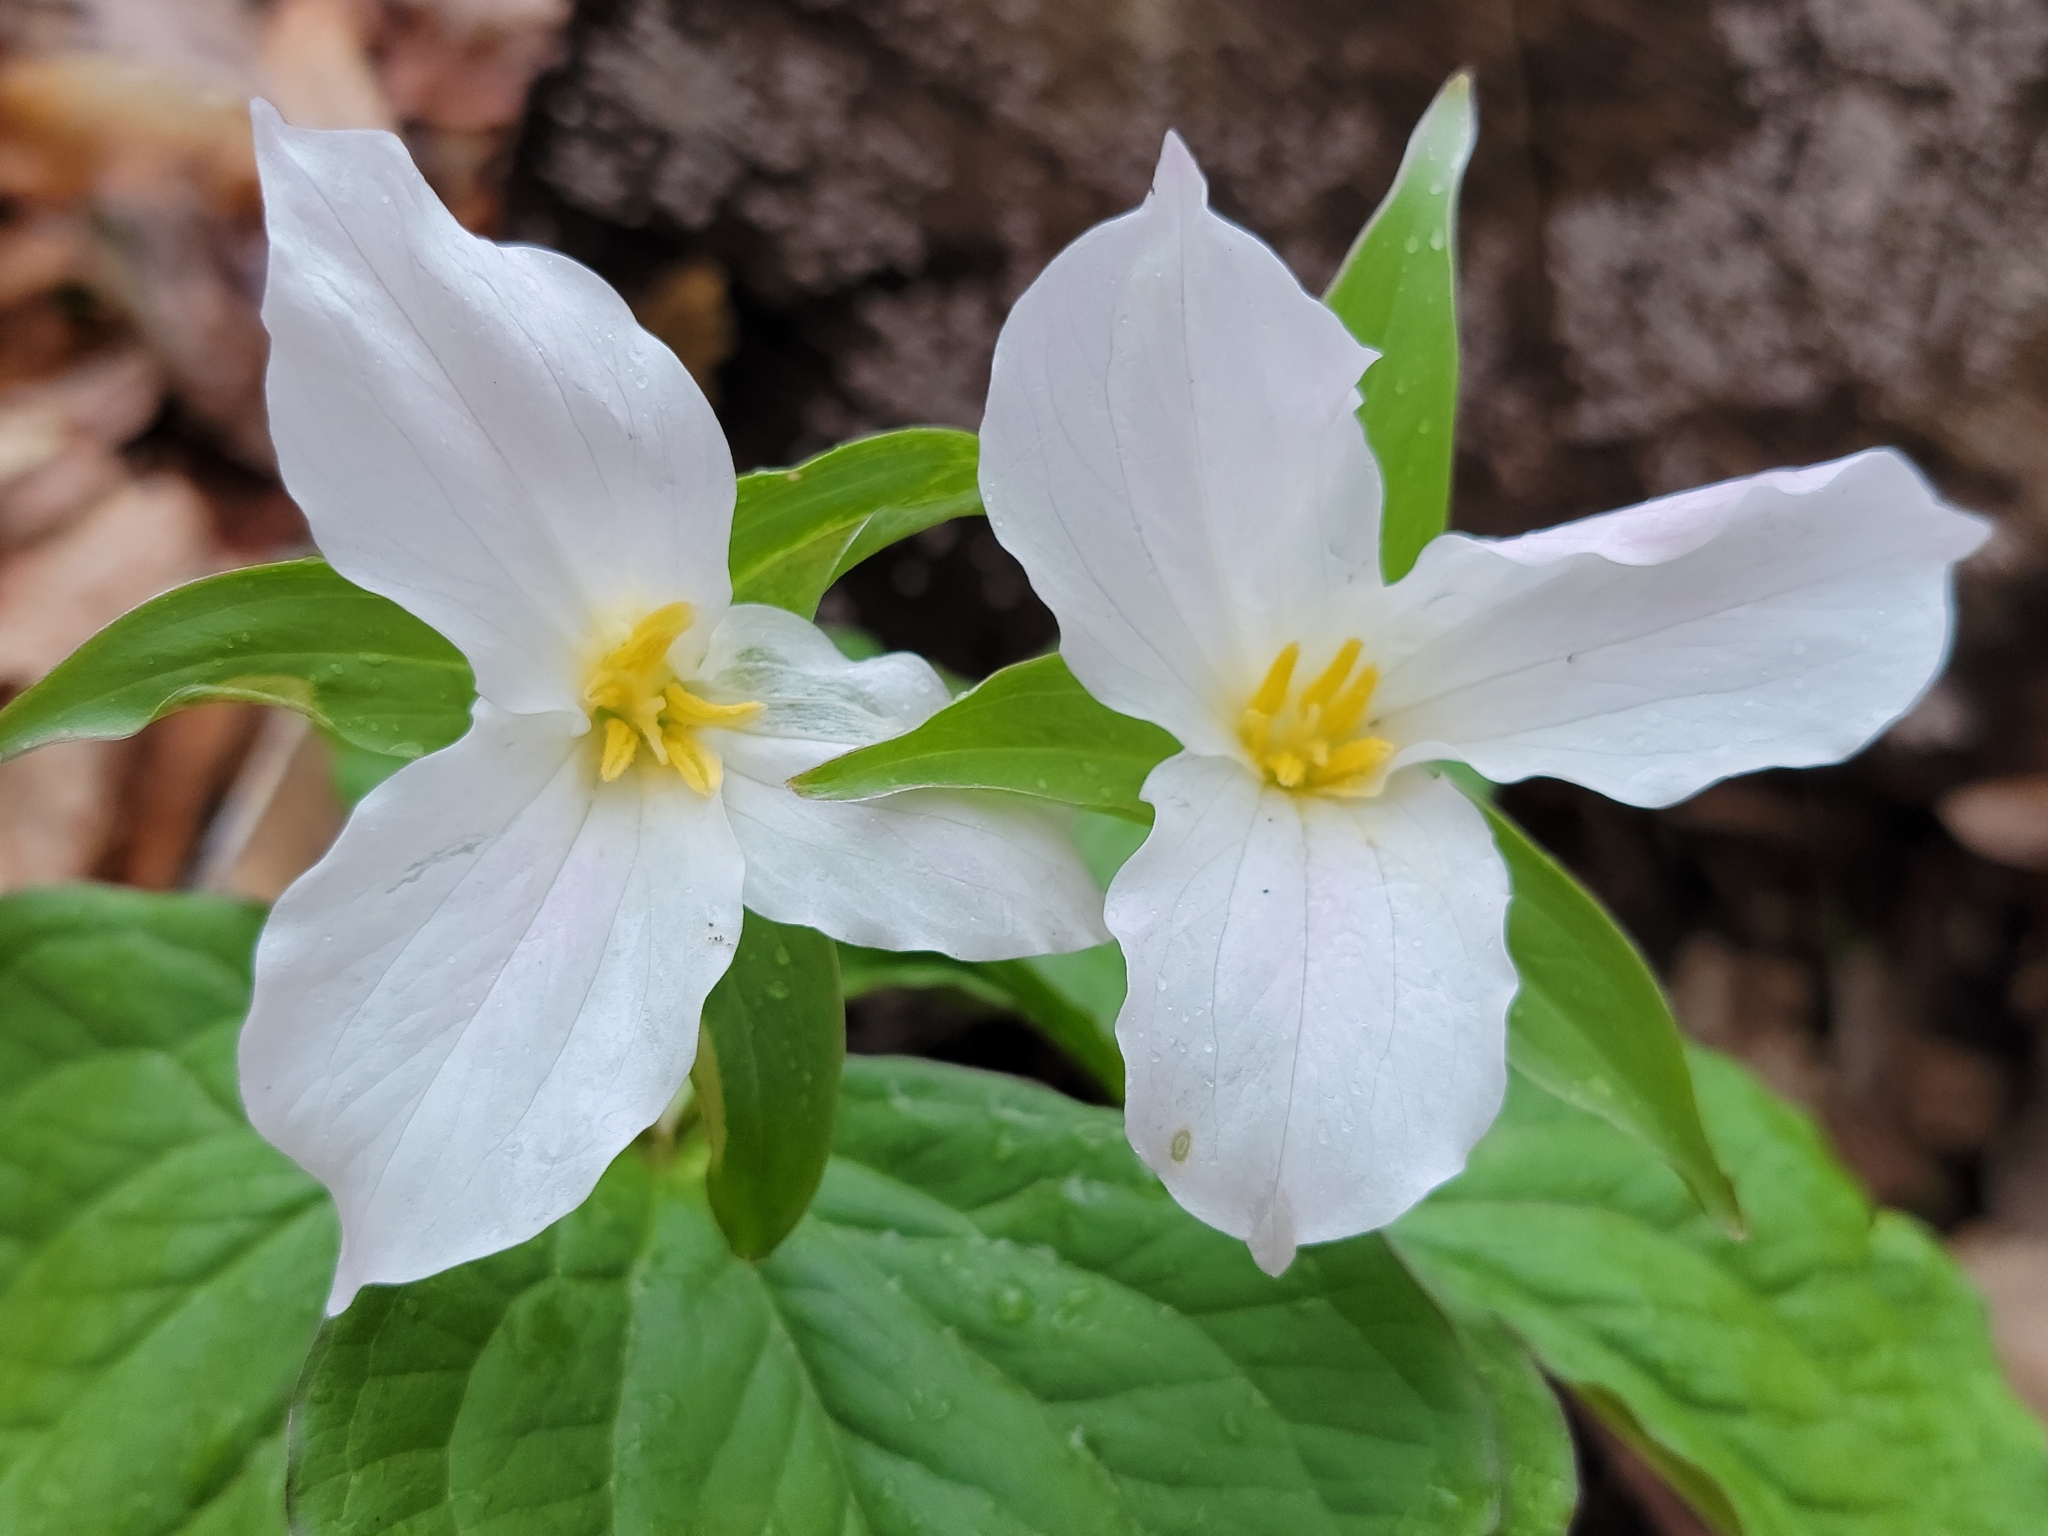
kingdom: Plantae
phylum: Tracheophyta
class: Liliopsida
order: Liliales
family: Melanthiaceae
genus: Trillium
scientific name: Trillium grandiflorum
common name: Great white trillium
